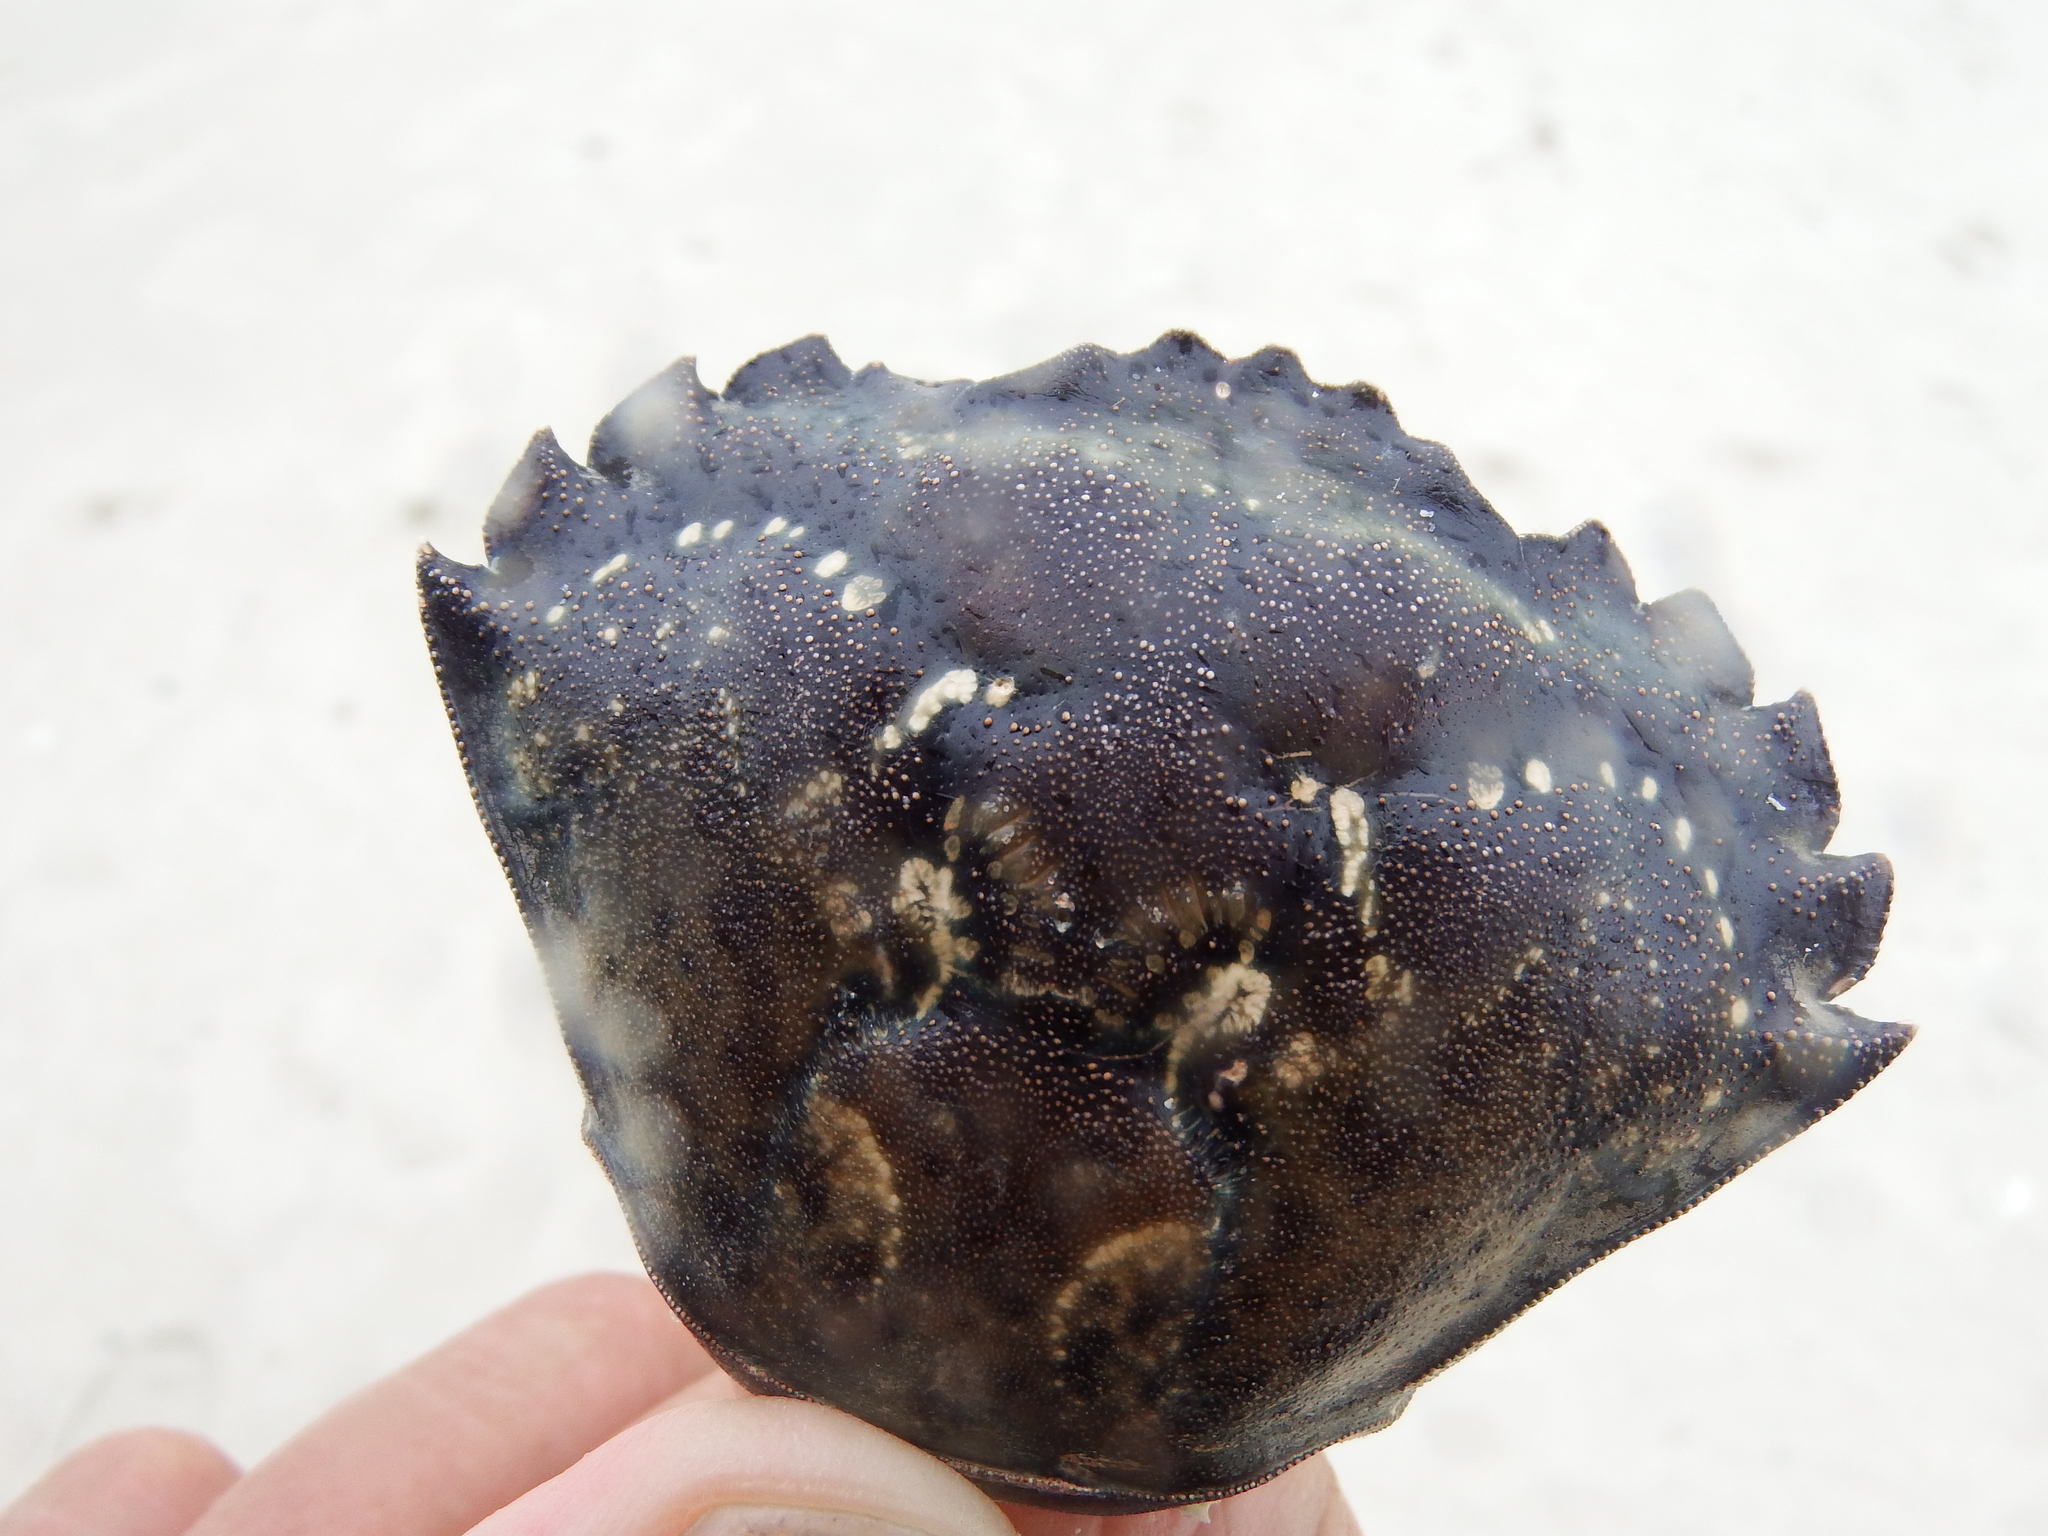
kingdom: Animalia
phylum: Arthropoda
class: Malacostraca
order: Decapoda
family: Carcinidae
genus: Carcinus
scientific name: Carcinus maenas
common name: European green crab
